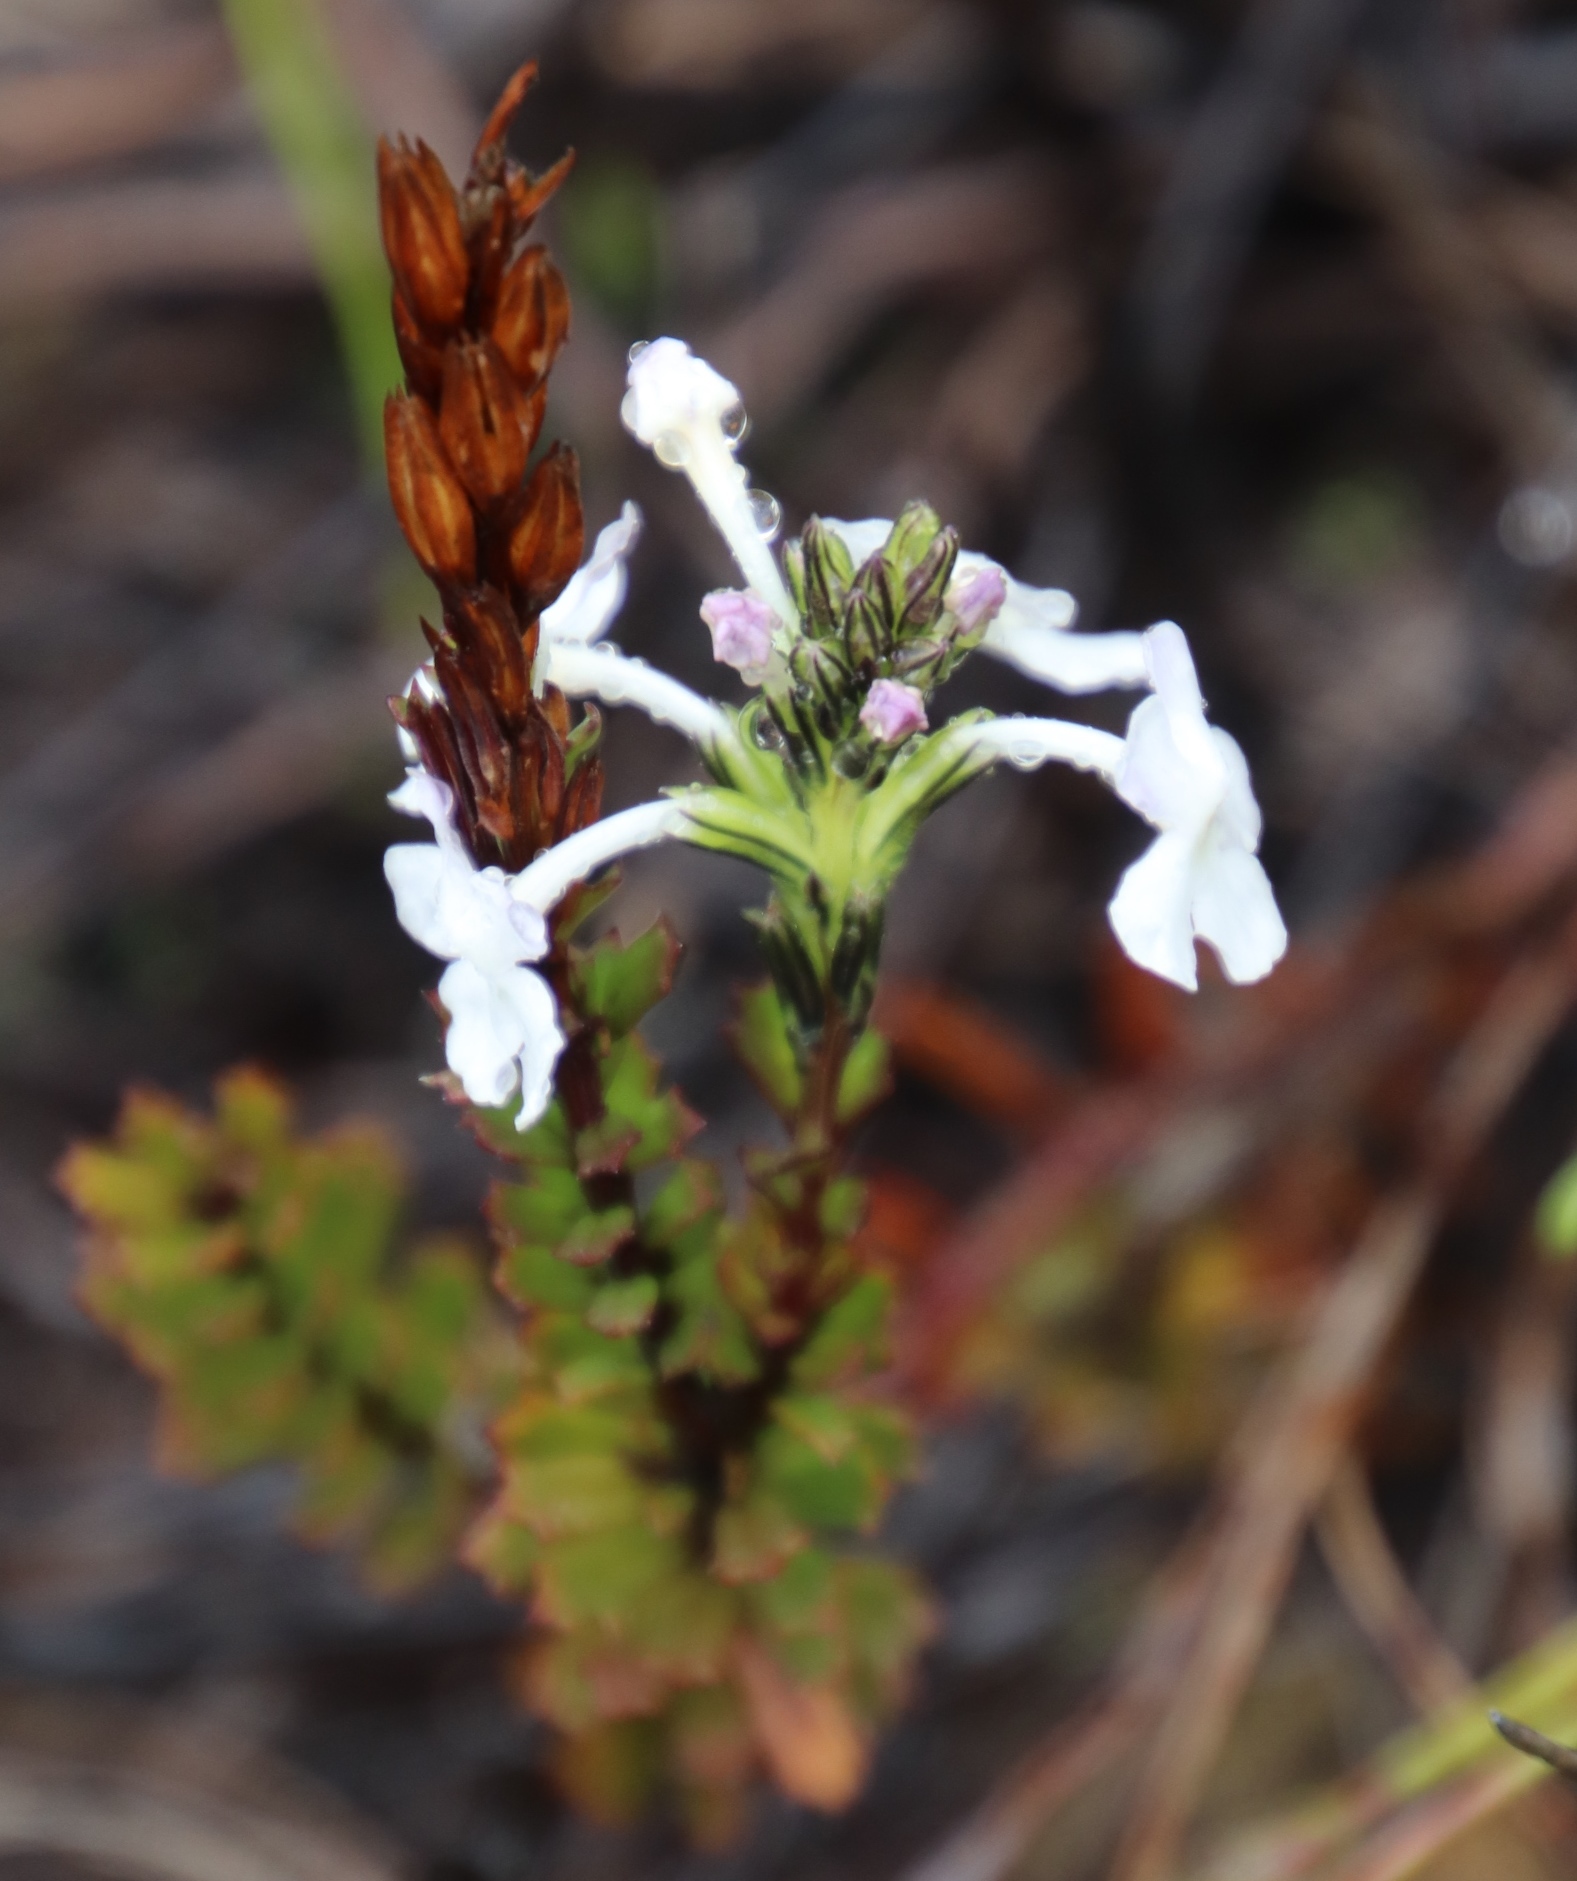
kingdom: Plantae
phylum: Tracheophyta
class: Magnoliopsida
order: Lamiales
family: Verbenaceae
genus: Chascanum
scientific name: Chascanum cernuum
